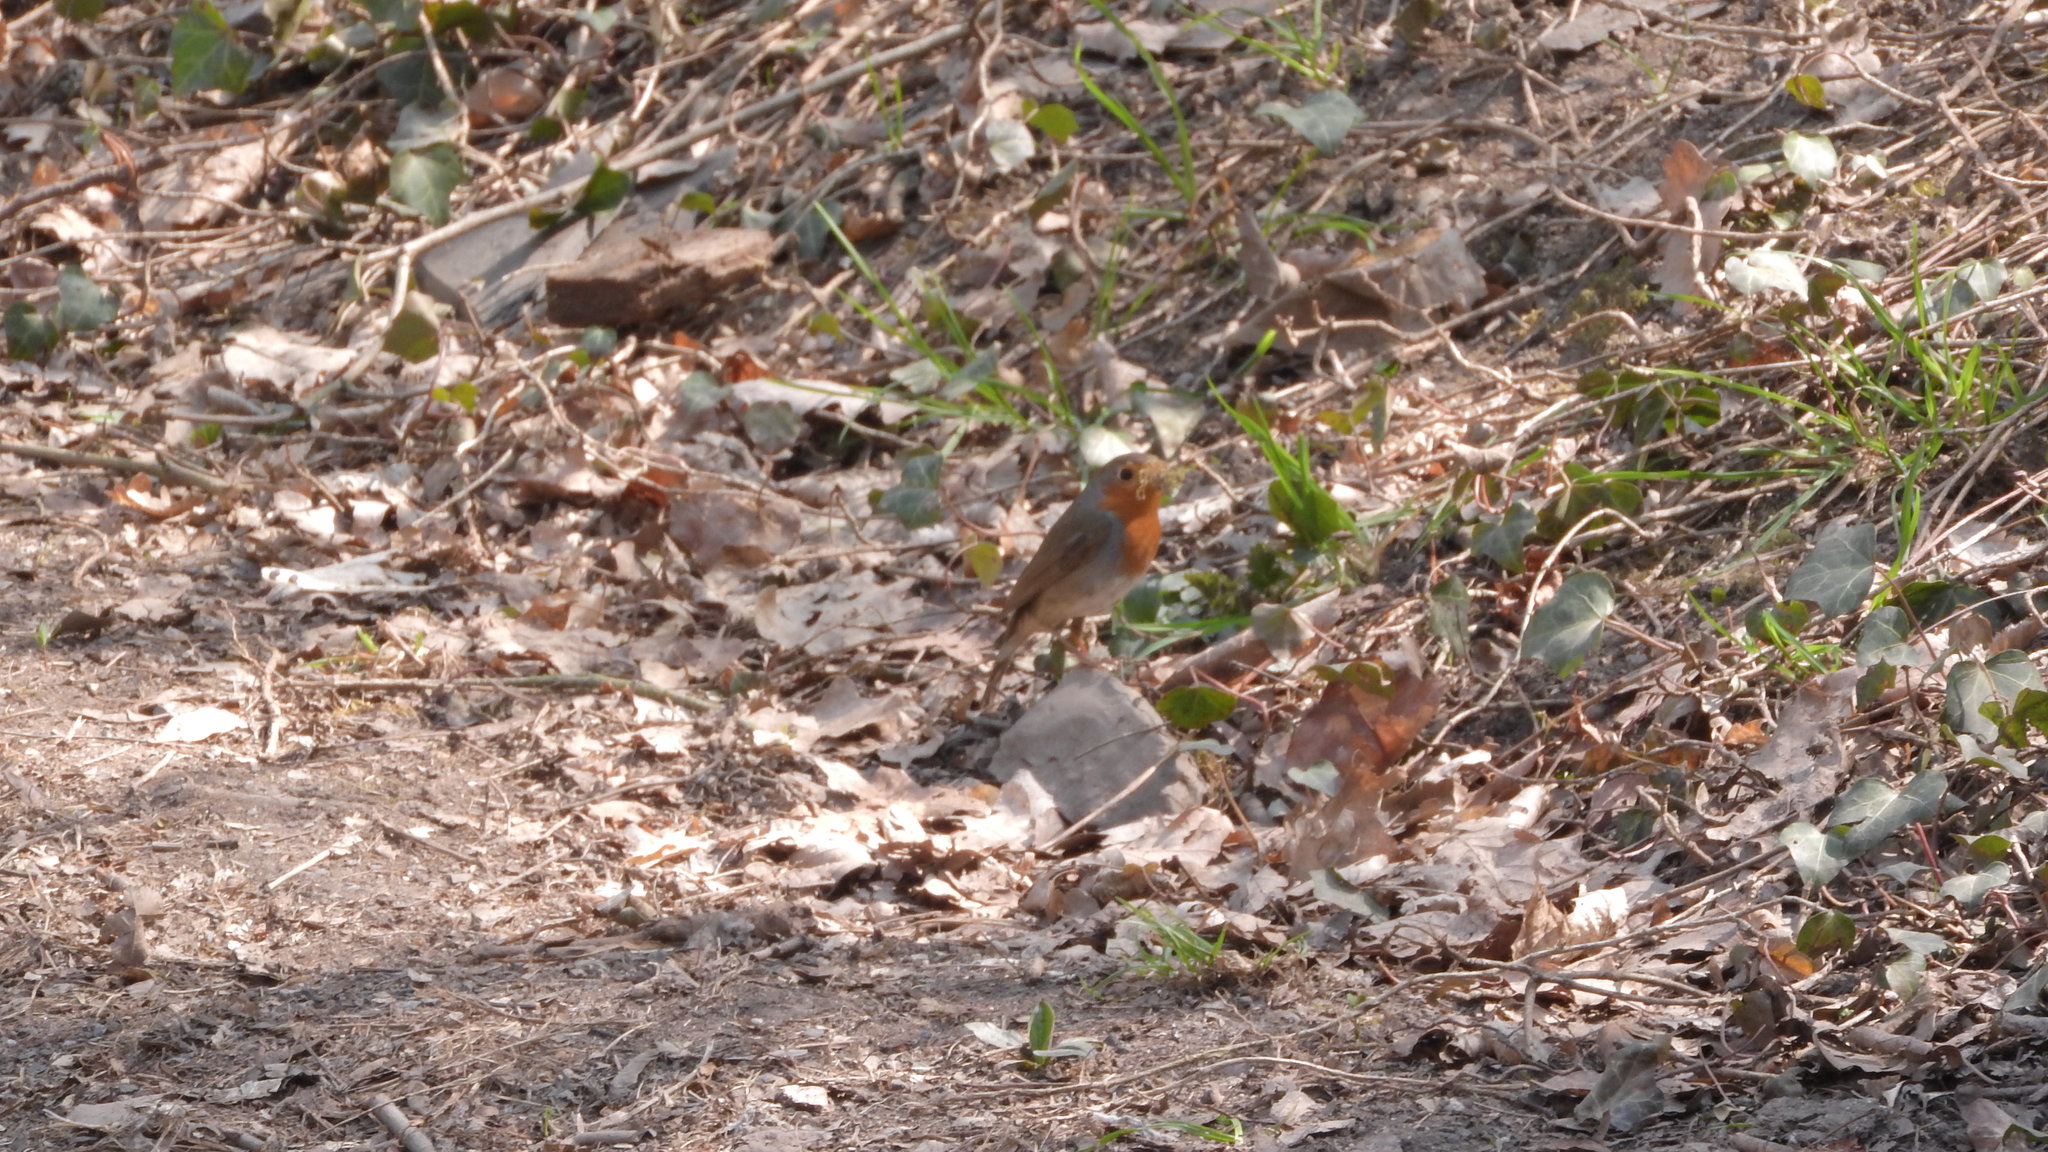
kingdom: Animalia
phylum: Chordata
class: Aves
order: Passeriformes
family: Muscicapidae
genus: Erithacus
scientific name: Erithacus rubecula
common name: European robin
